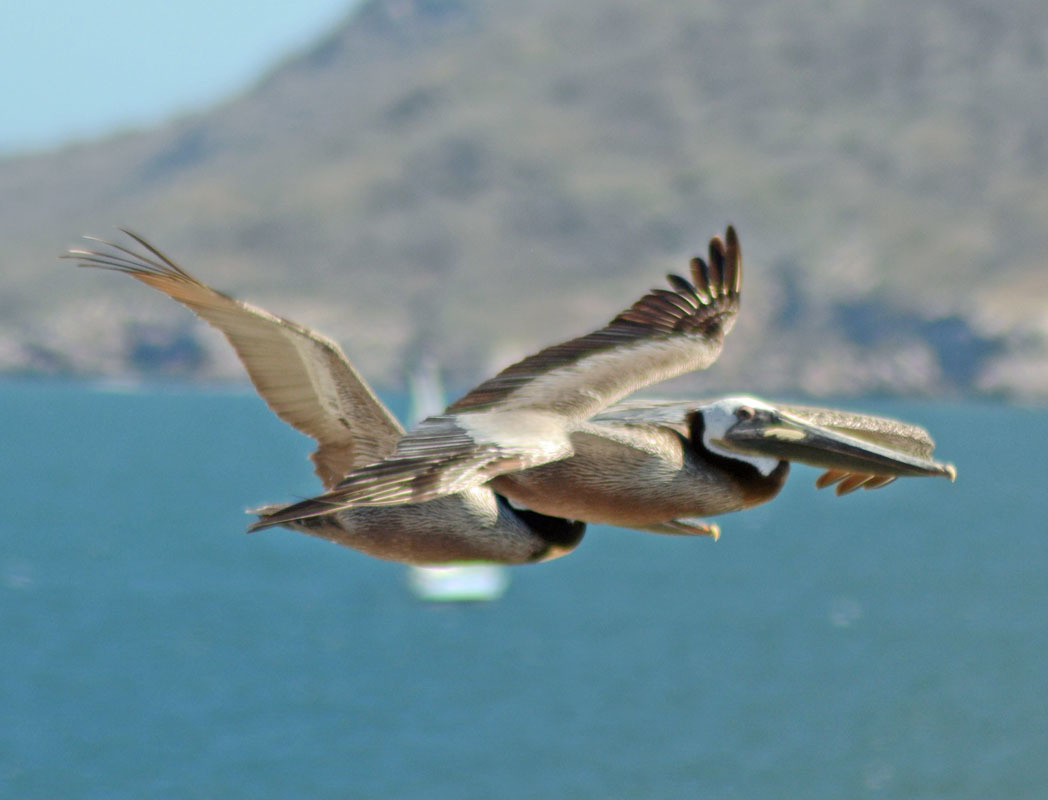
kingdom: Animalia
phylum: Chordata
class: Aves
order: Pelecaniformes
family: Pelecanidae
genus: Pelecanus
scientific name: Pelecanus occidentalis
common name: Brown pelican
